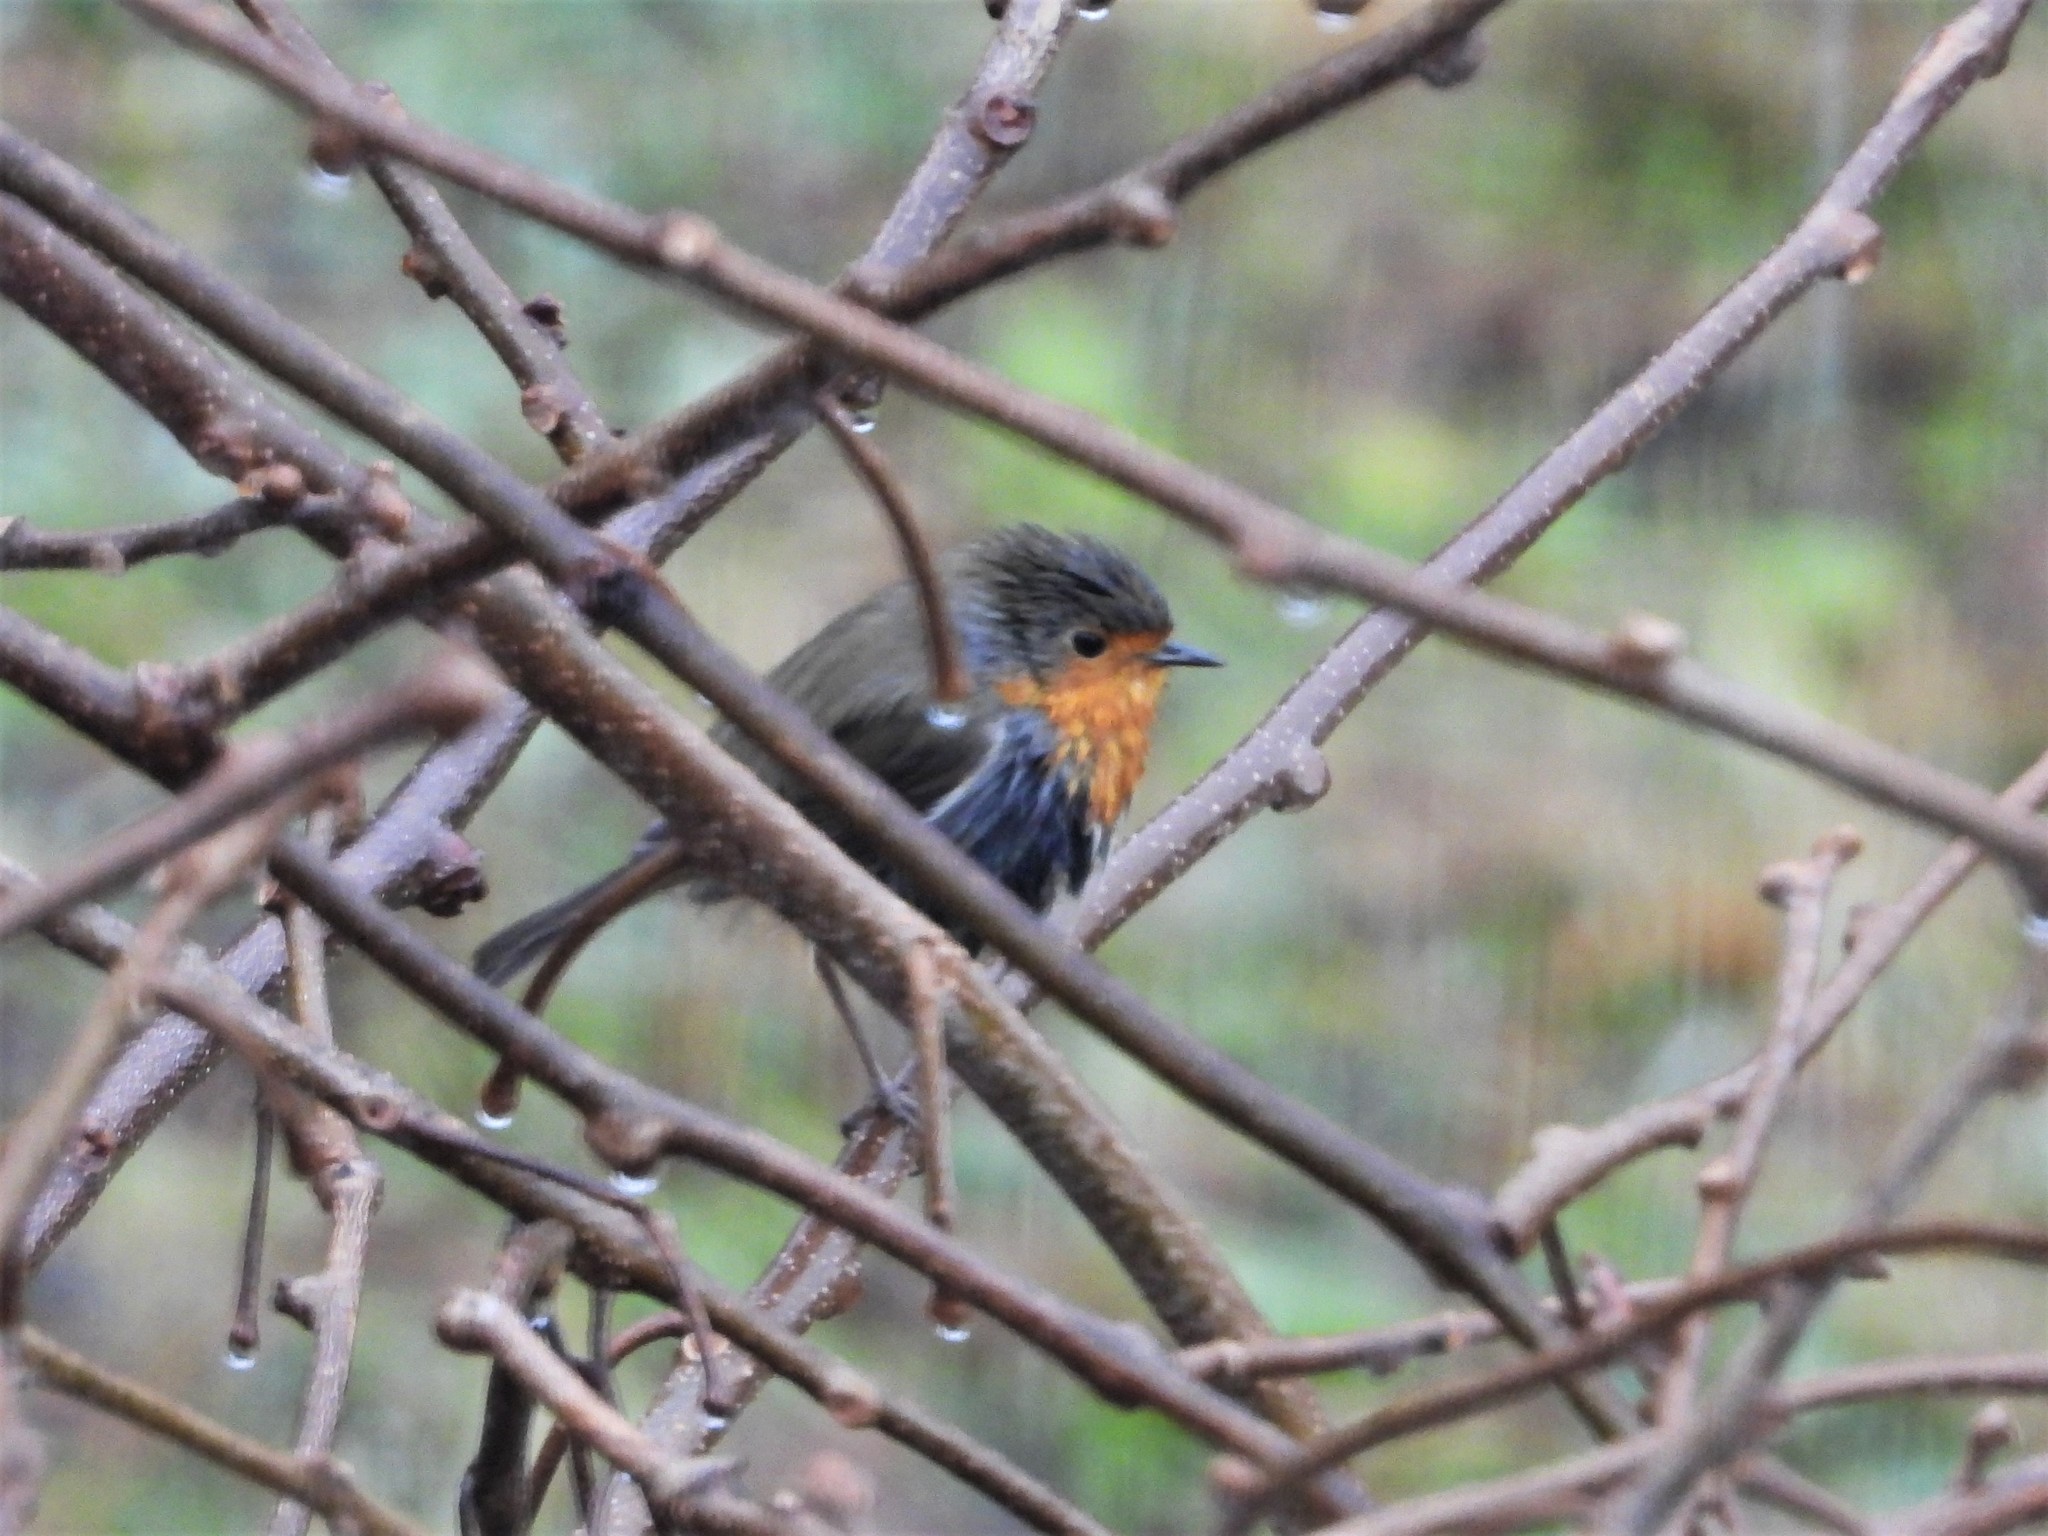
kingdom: Animalia
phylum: Chordata
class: Aves
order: Passeriformes
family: Muscicapidae
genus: Erithacus
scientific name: Erithacus rubecula
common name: European robin
